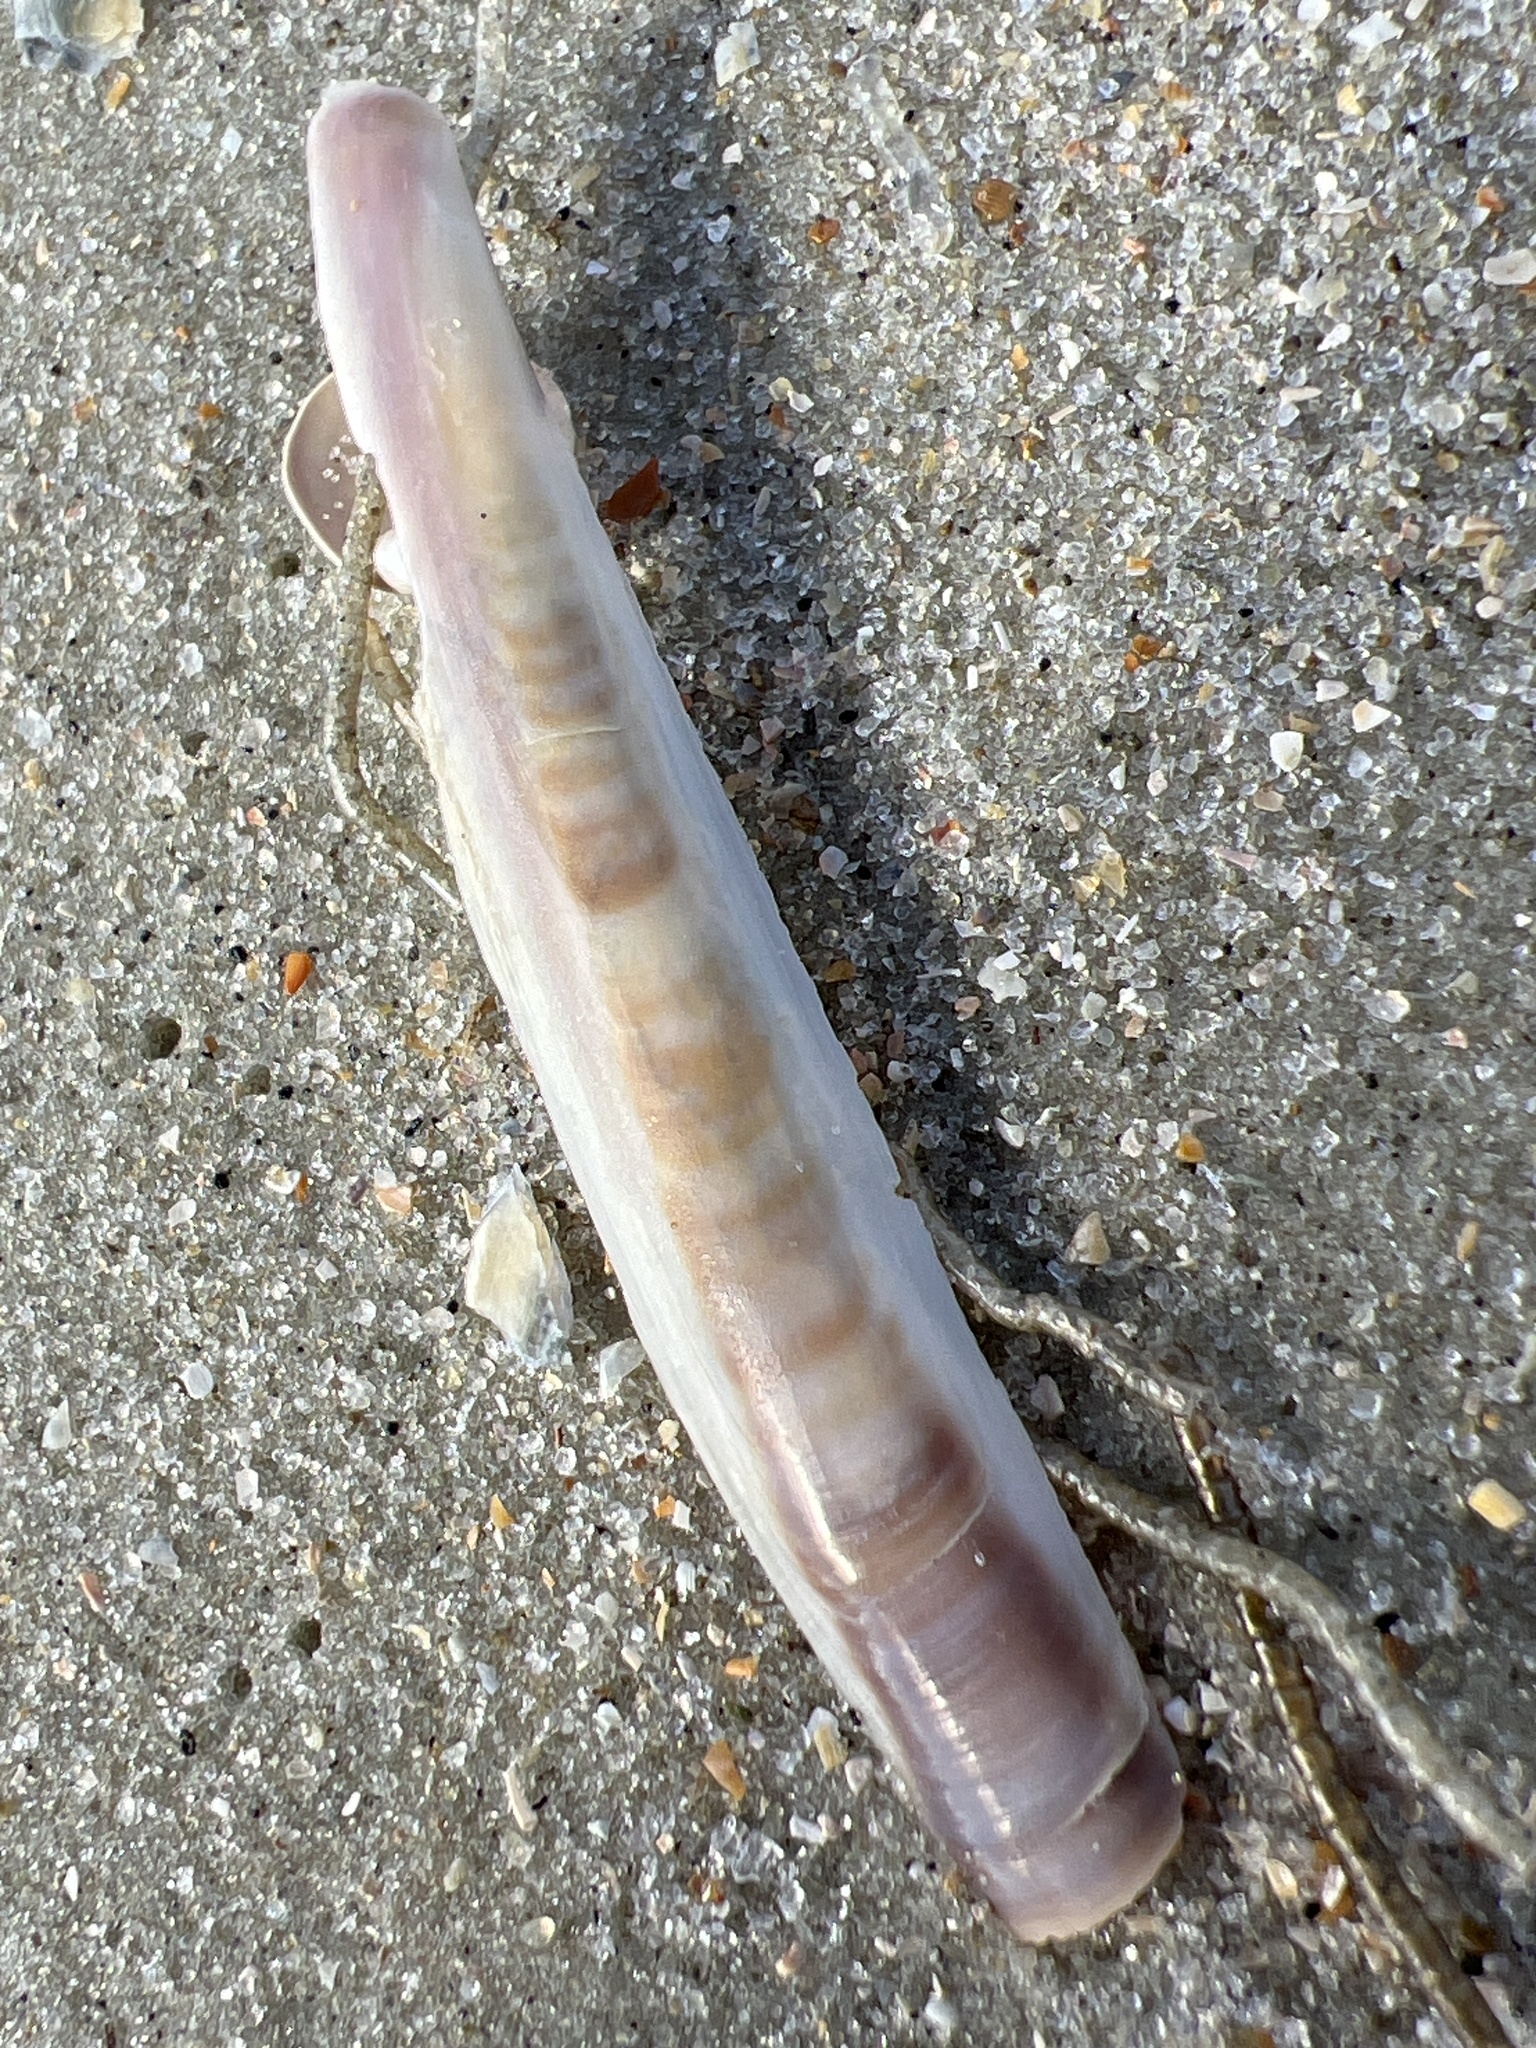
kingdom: Animalia
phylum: Mollusca
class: Bivalvia
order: Adapedonta
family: Pharidae
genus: Ensis
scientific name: Ensis leei
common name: American jack knife clam
